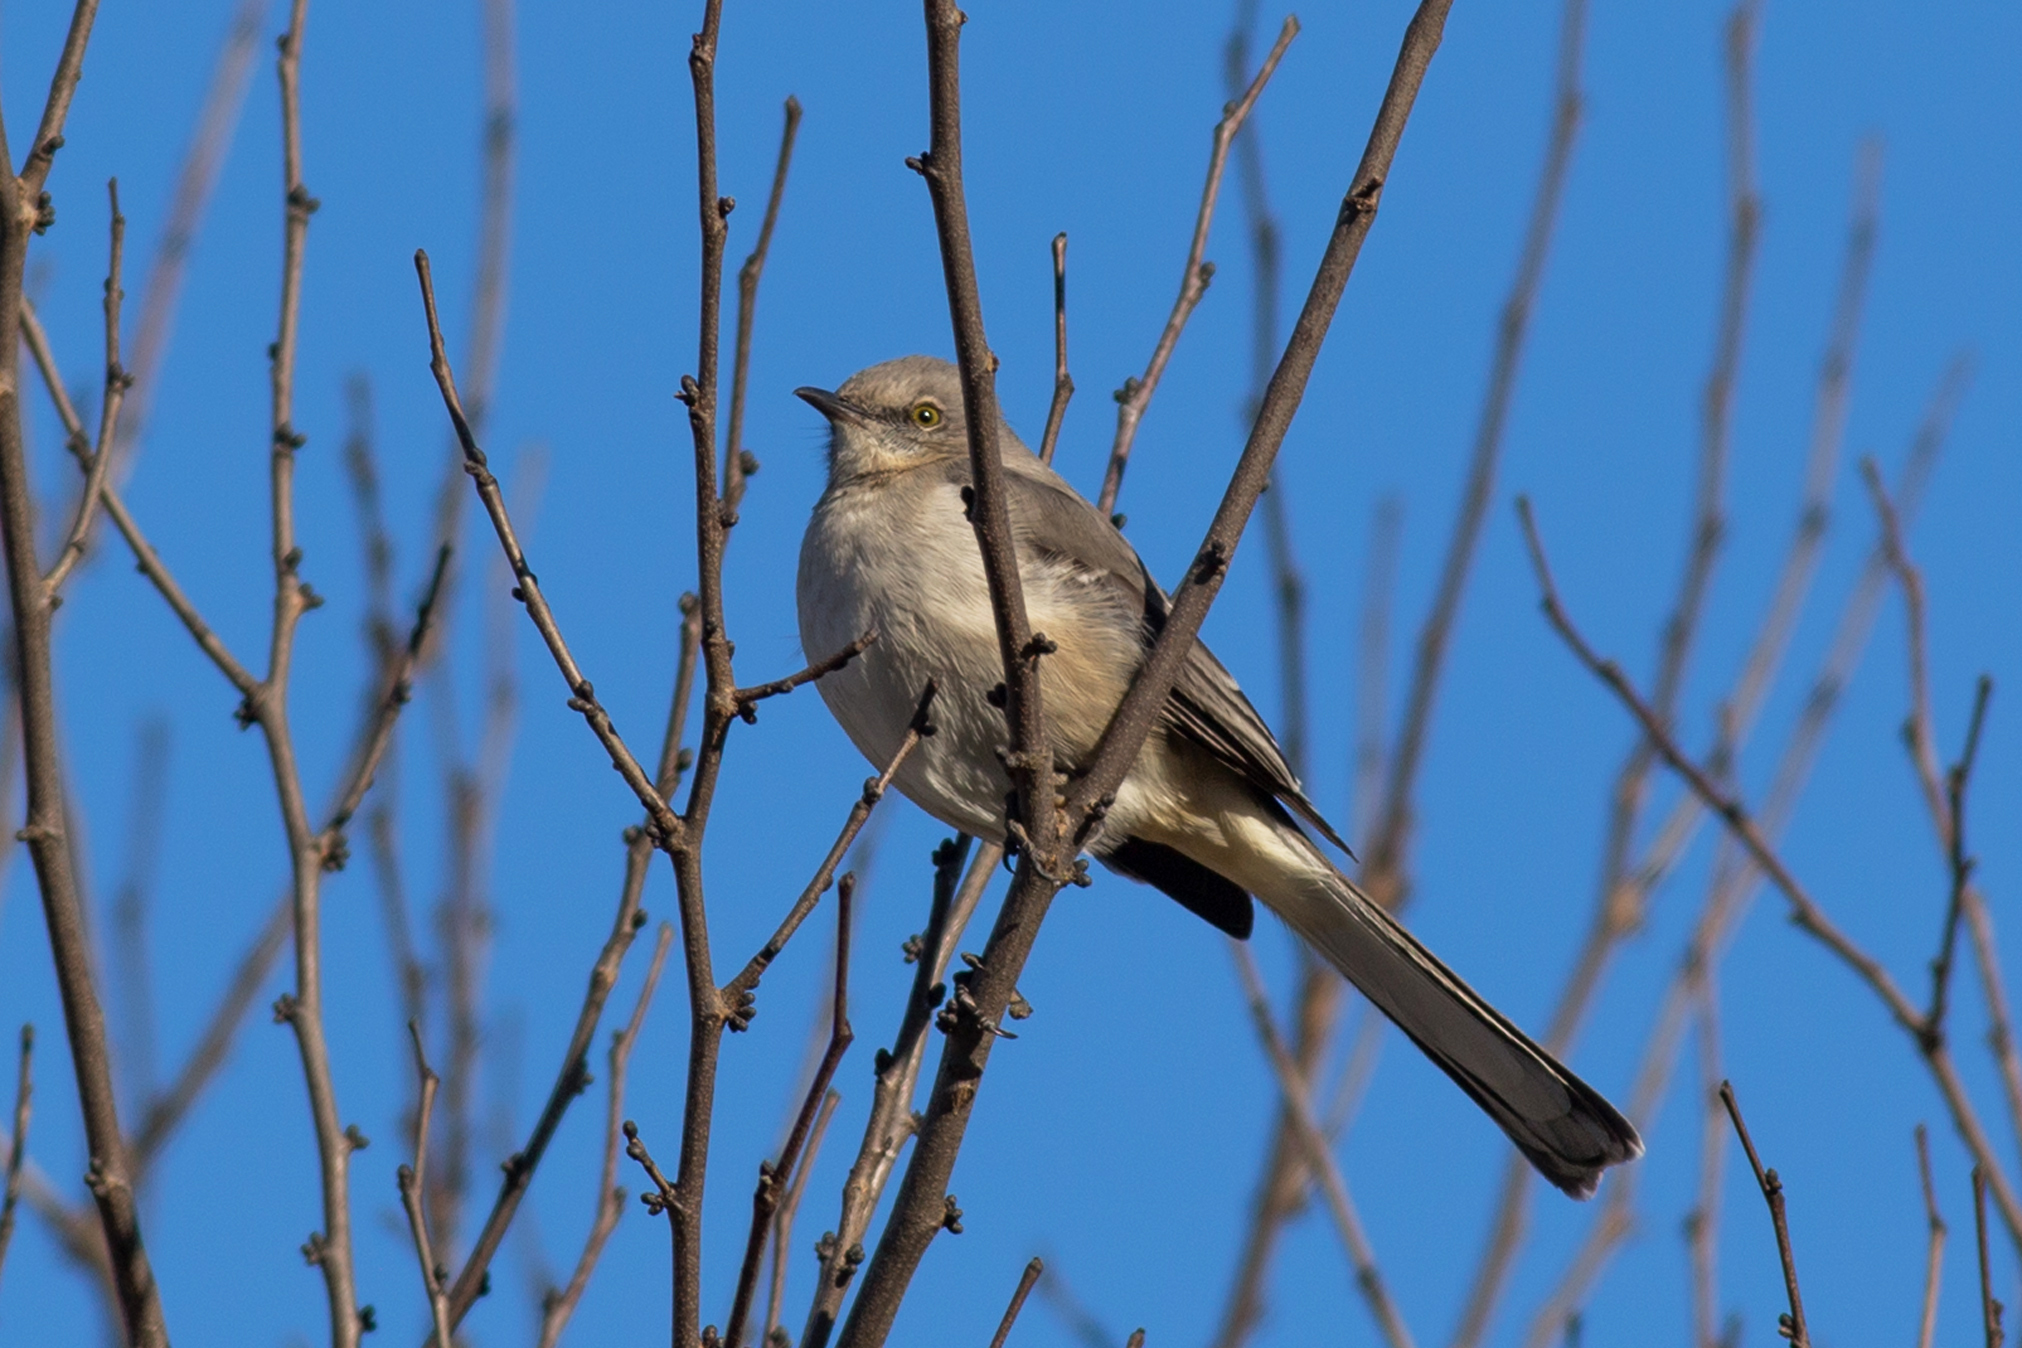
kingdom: Animalia
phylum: Chordata
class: Aves
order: Passeriformes
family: Mimidae
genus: Mimus
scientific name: Mimus polyglottos
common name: Northern mockingbird
